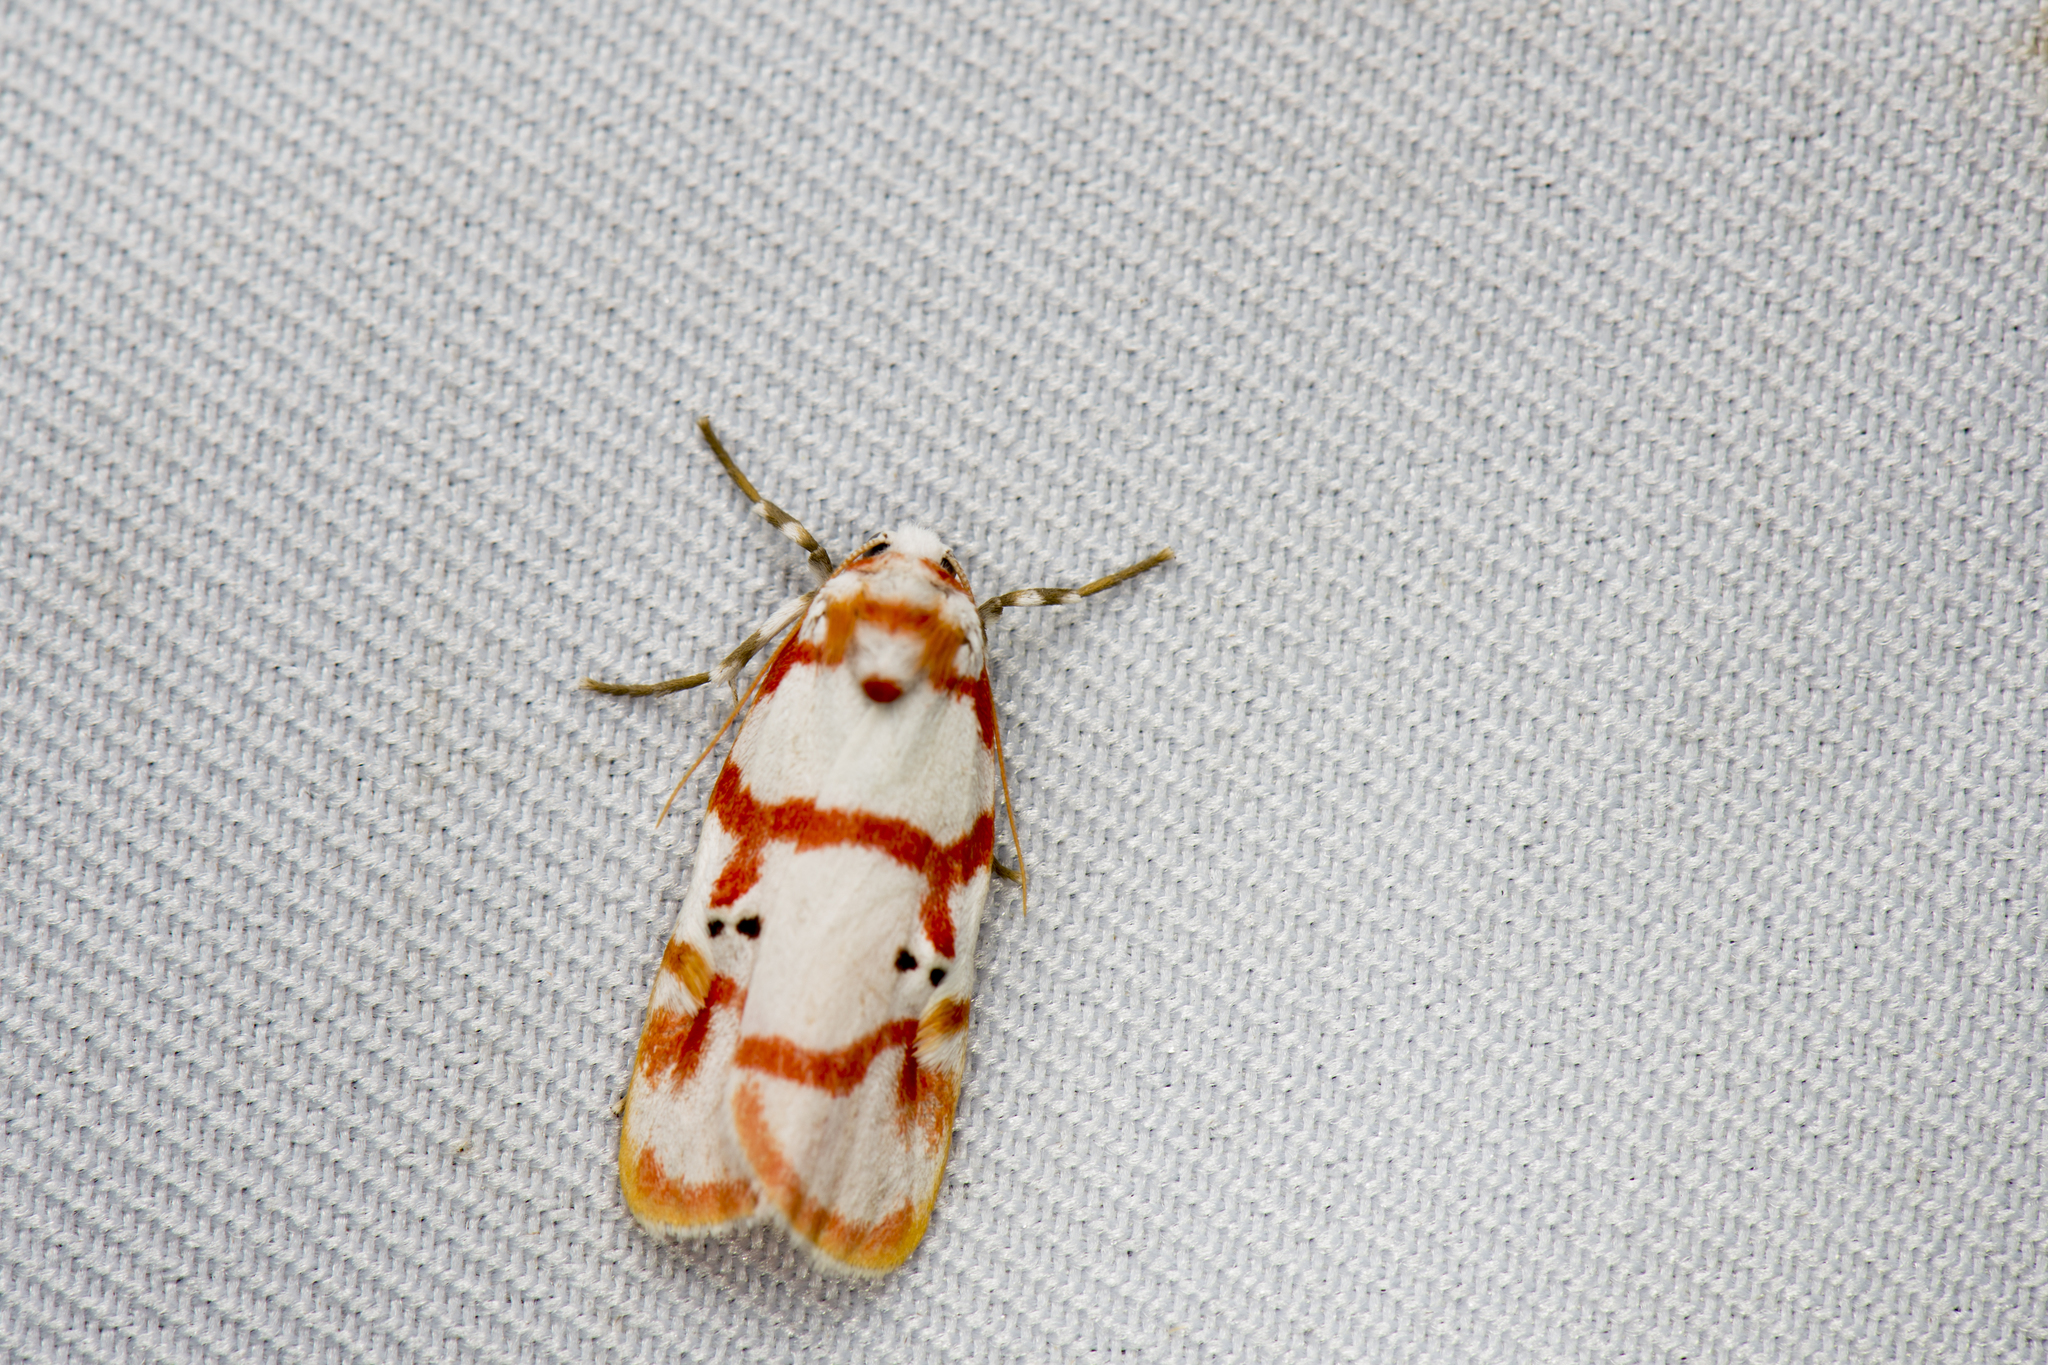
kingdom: Animalia
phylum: Arthropoda
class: Insecta
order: Lepidoptera
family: Erebidae
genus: Cyana
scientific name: Cyana hamata
